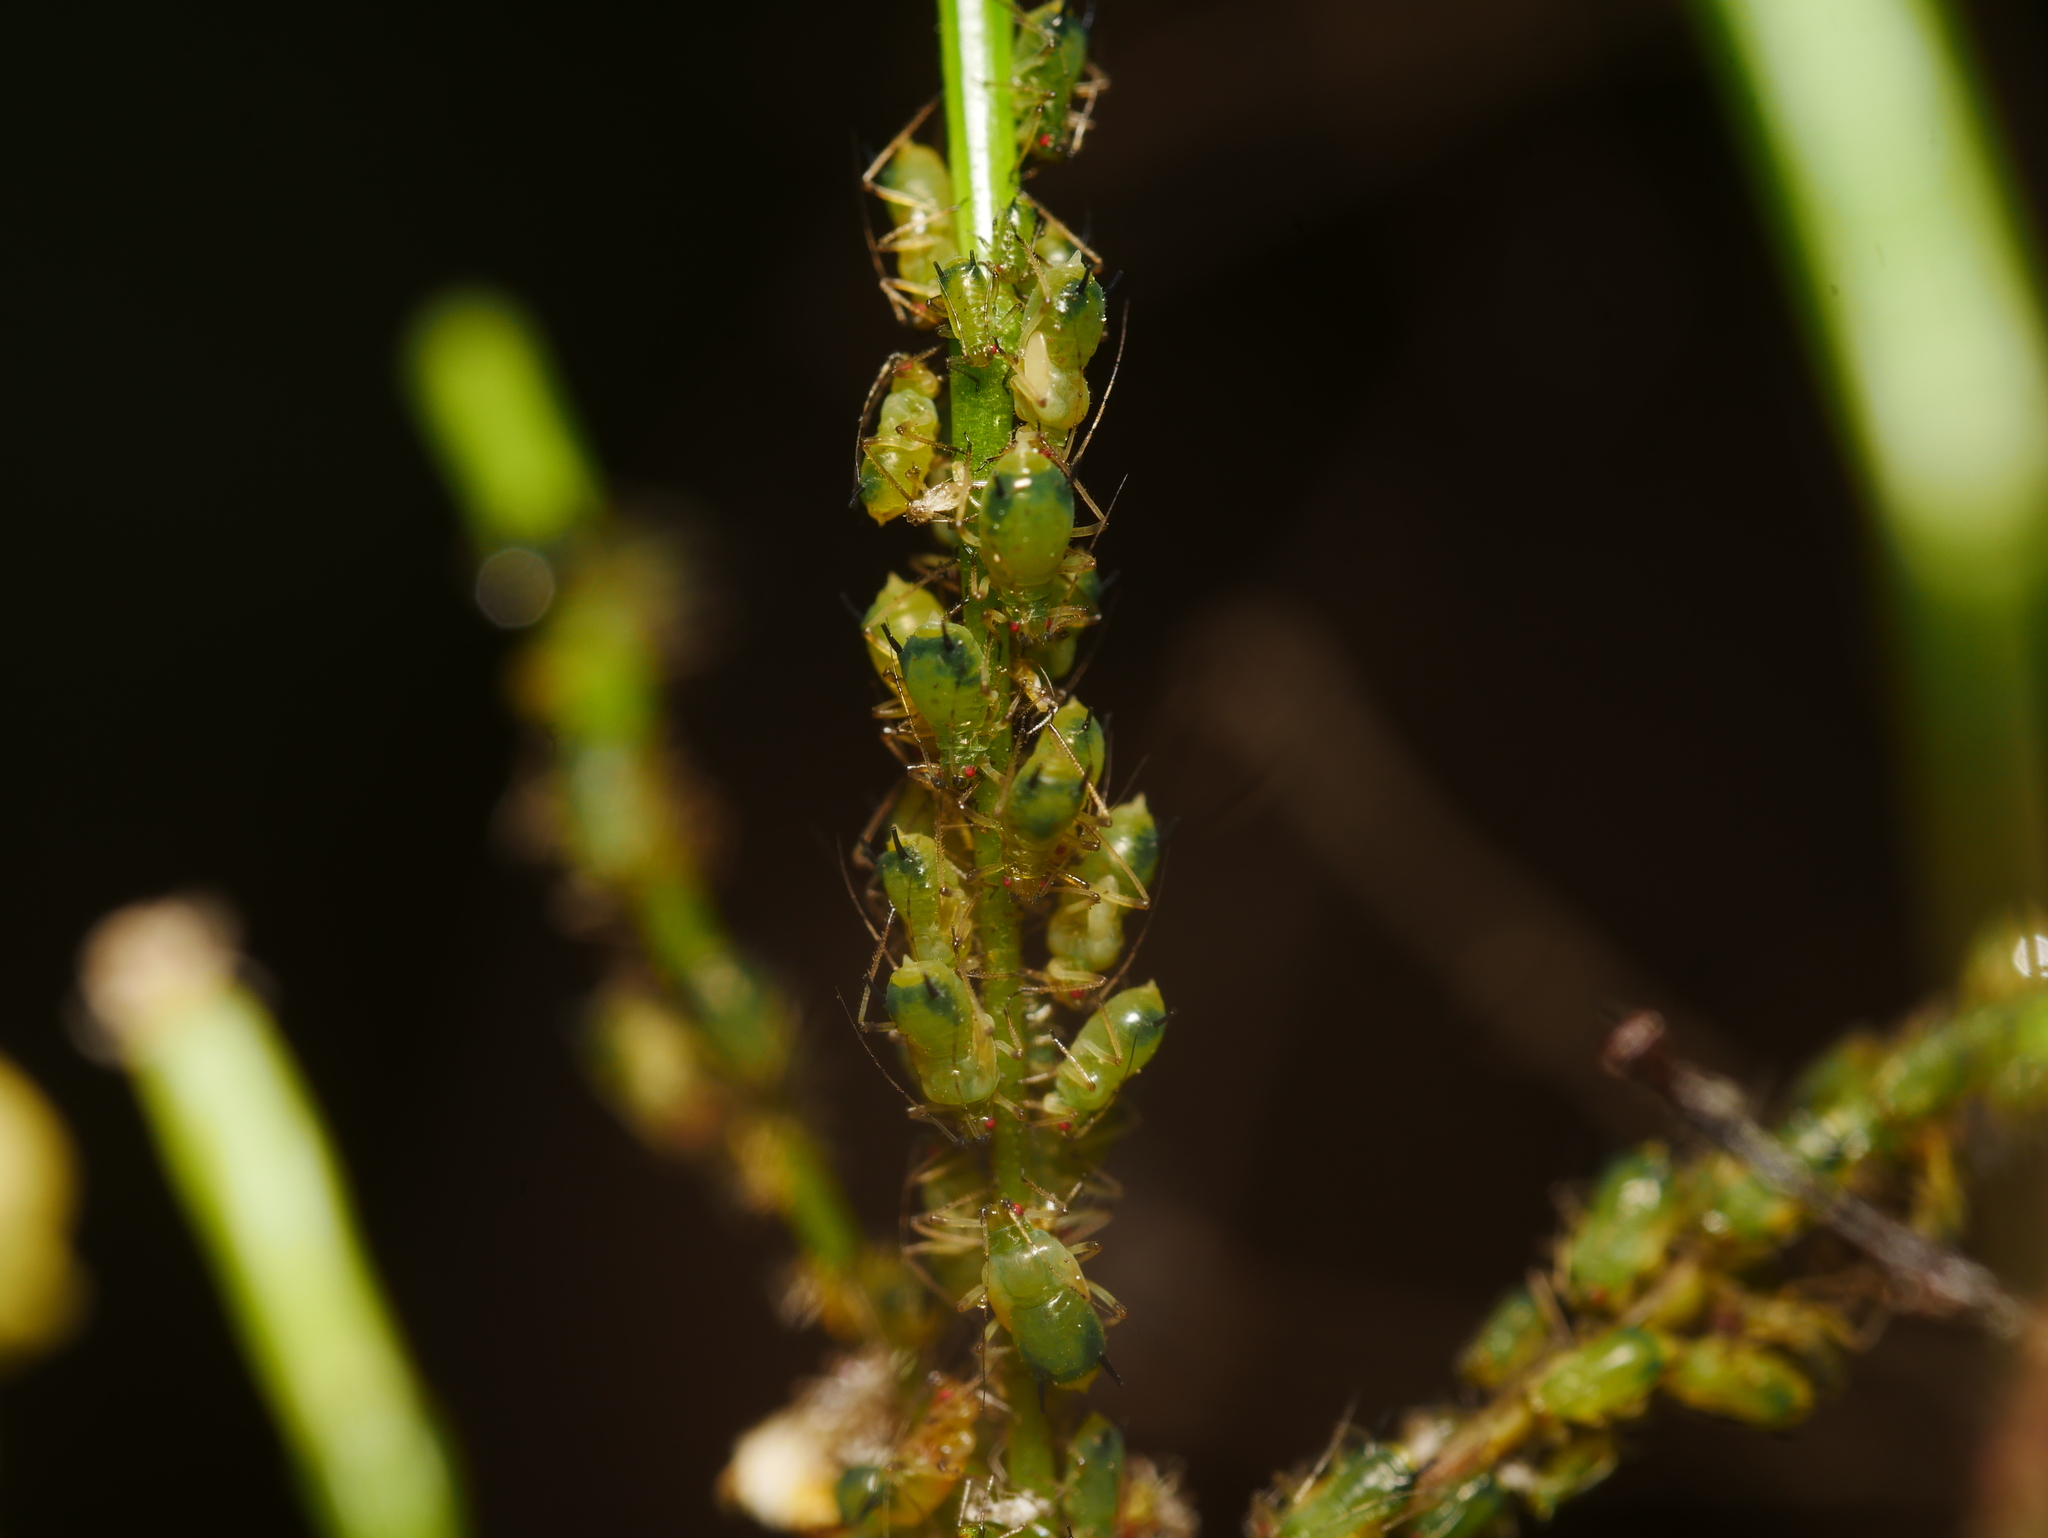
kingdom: Animalia
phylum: Arthropoda
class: Insecta
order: Hemiptera
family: Aphididae
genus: Impatientinum
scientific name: Impatientinum asiaticum
